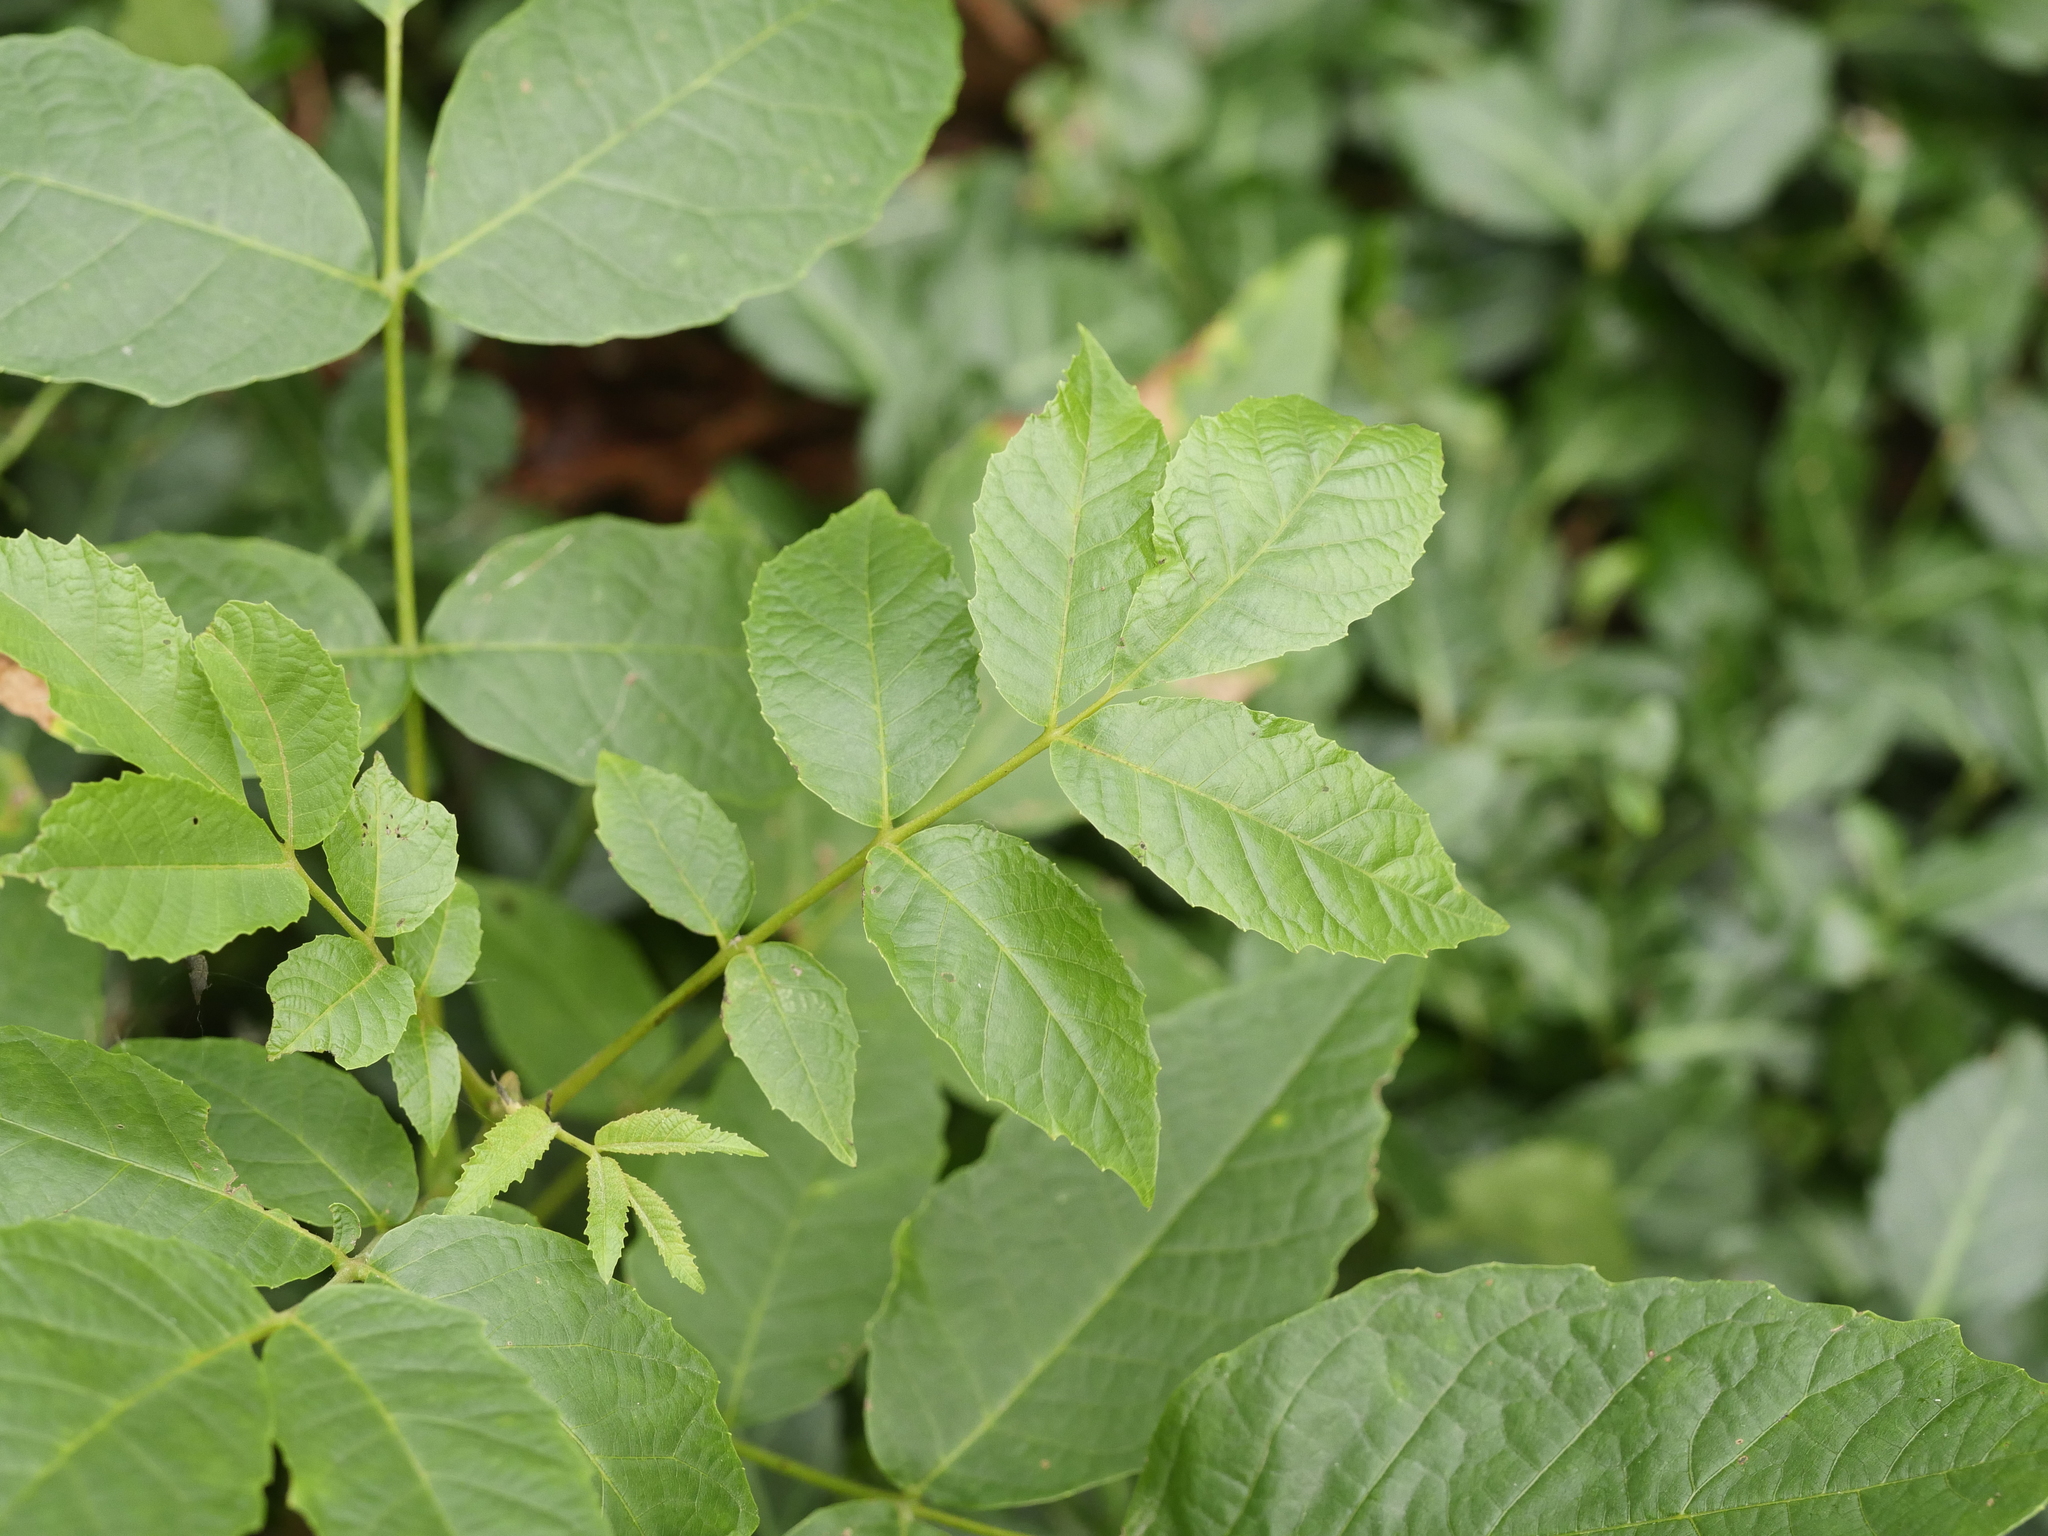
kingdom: Plantae
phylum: Tracheophyta
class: Magnoliopsida
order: Fagales
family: Juglandaceae
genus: Juglans
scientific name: Juglans regia
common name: Walnut
